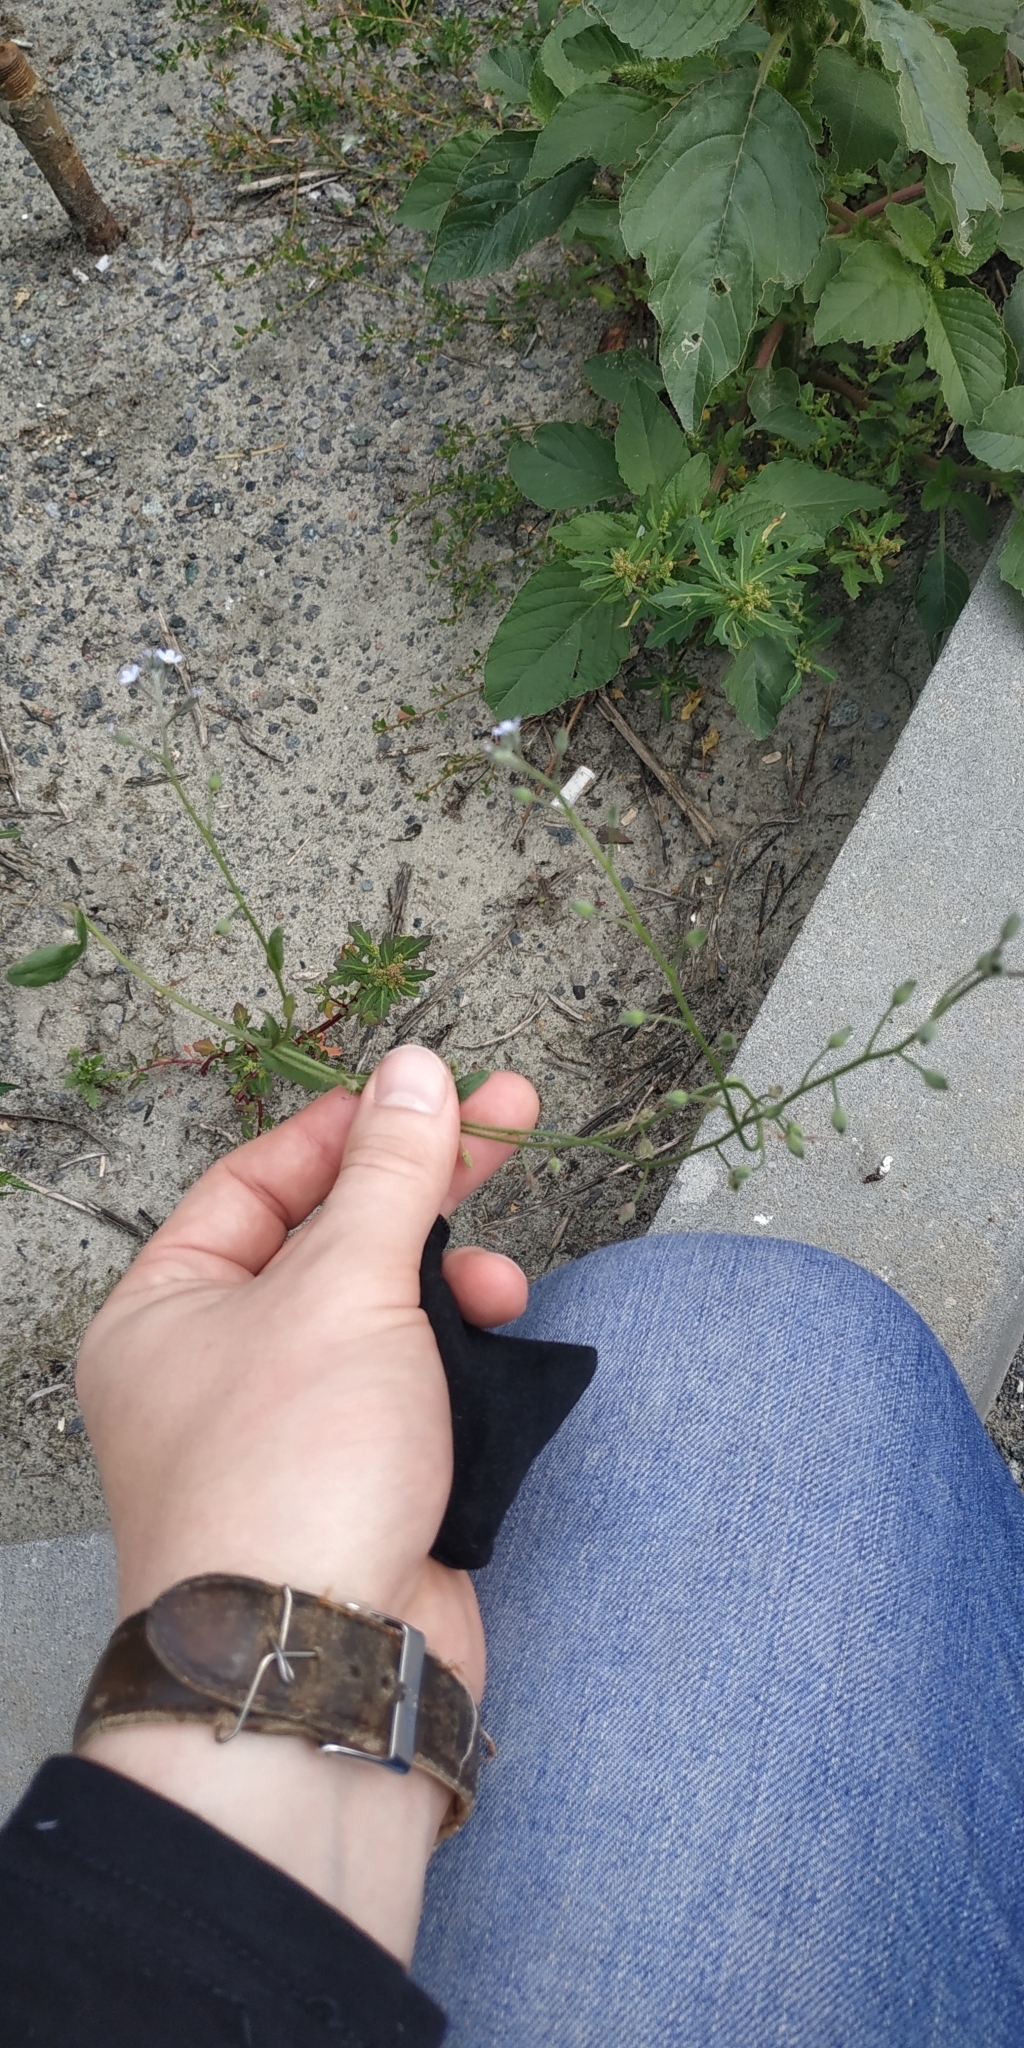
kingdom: Plantae
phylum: Tracheophyta
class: Magnoliopsida
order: Boraginales
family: Boraginaceae
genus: Myosotis
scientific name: Myosotis arvensis
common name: Field forget-me-not
